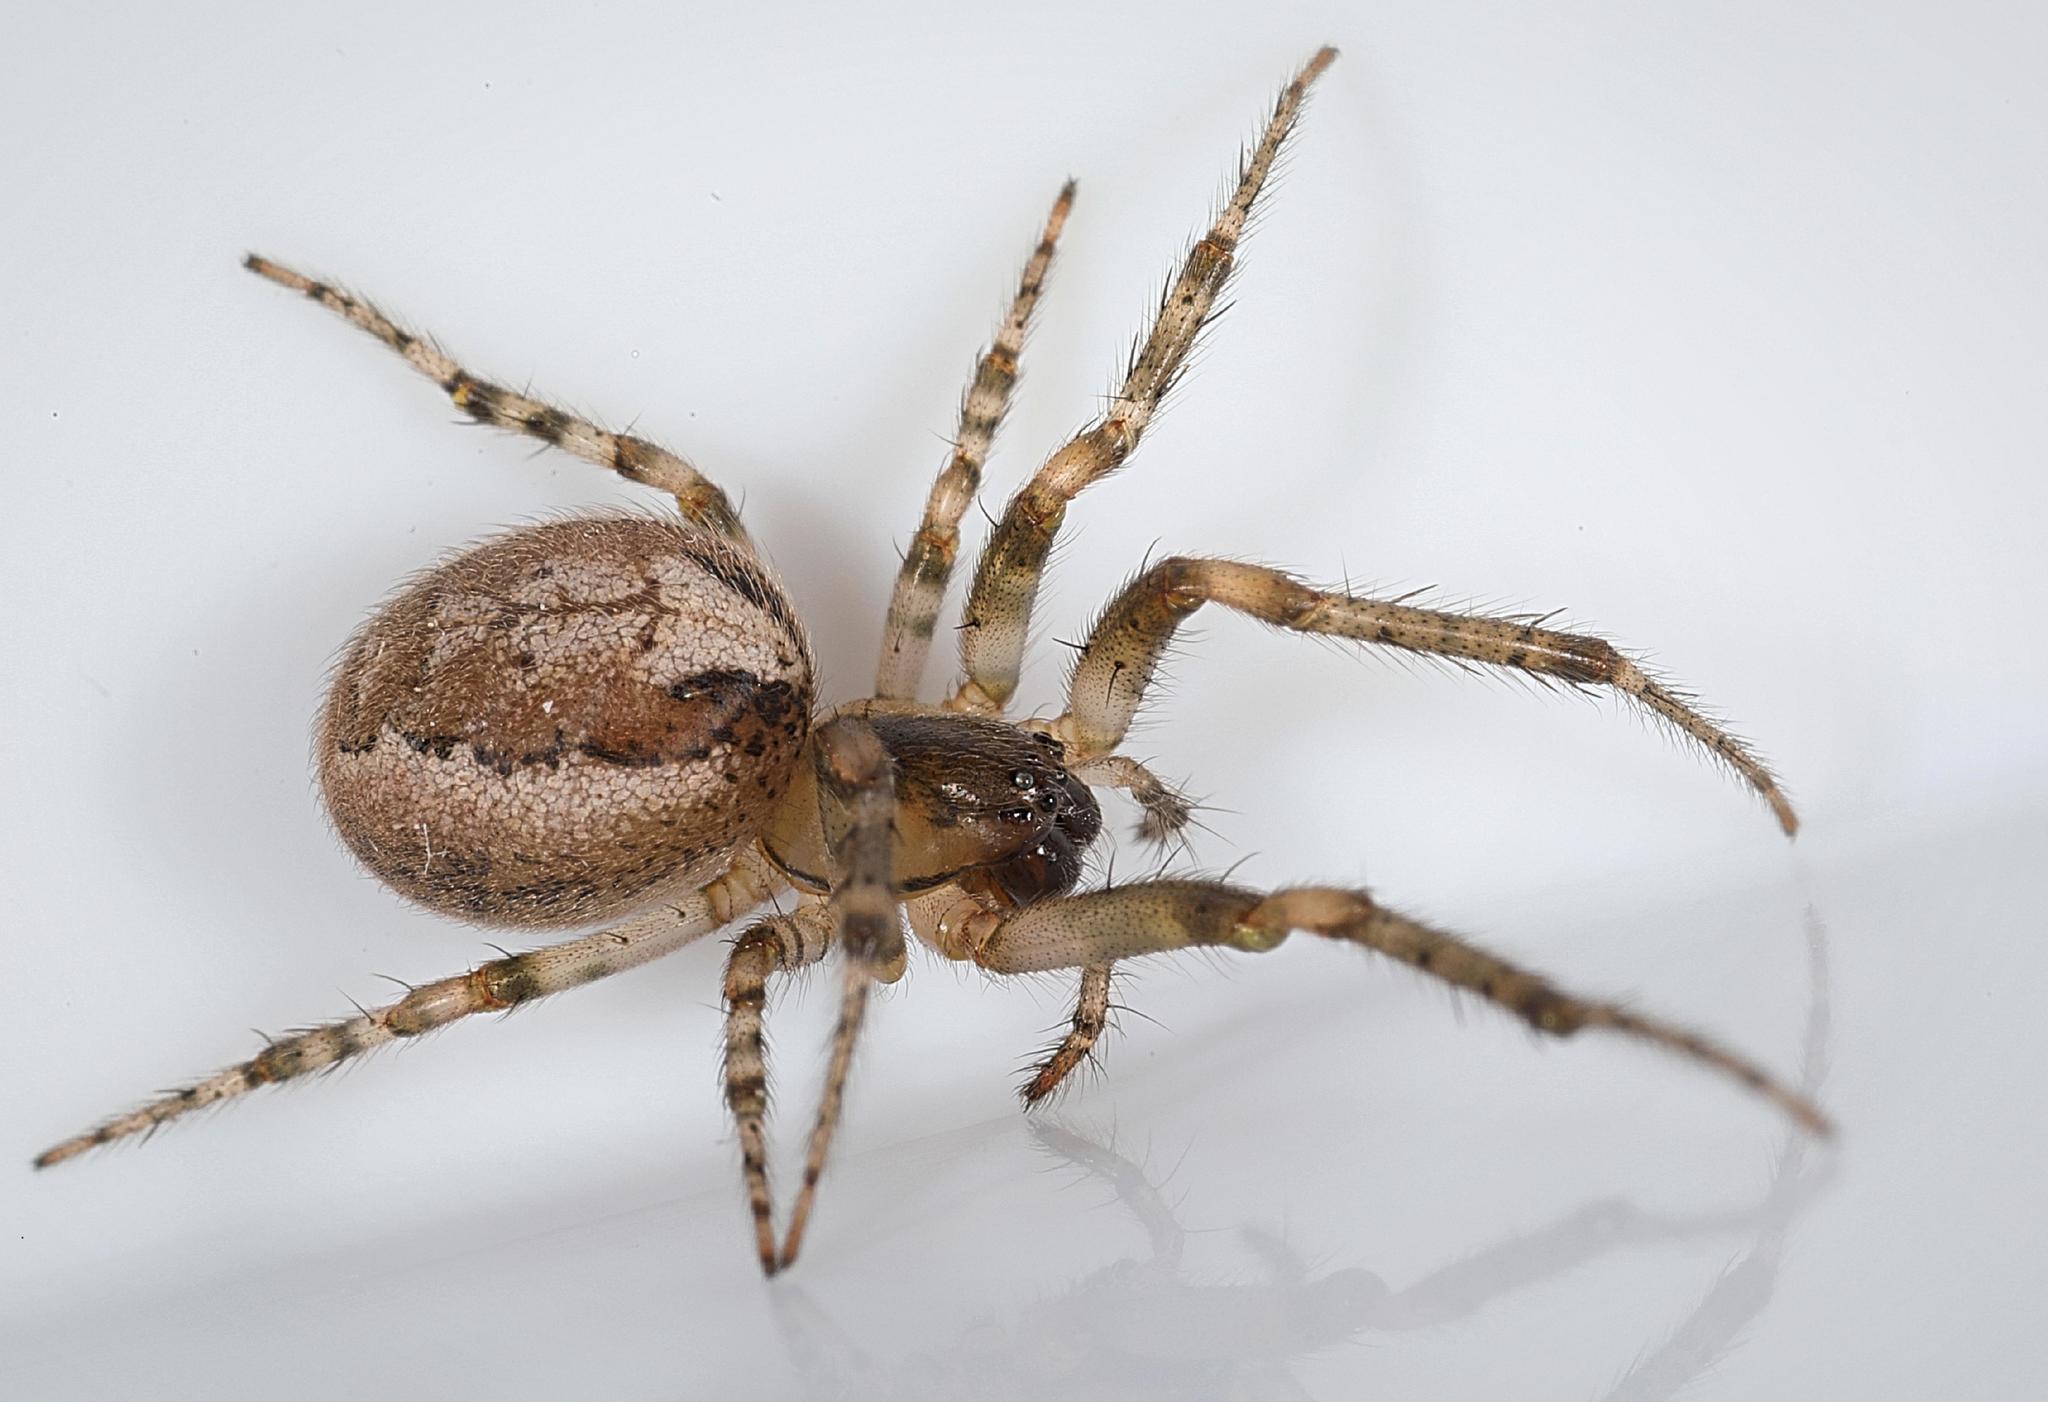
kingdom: Animalia
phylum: Arthropoda
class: Arachnida
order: Araneae
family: Araneidae
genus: Zygiella
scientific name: Zygiella x-notata
